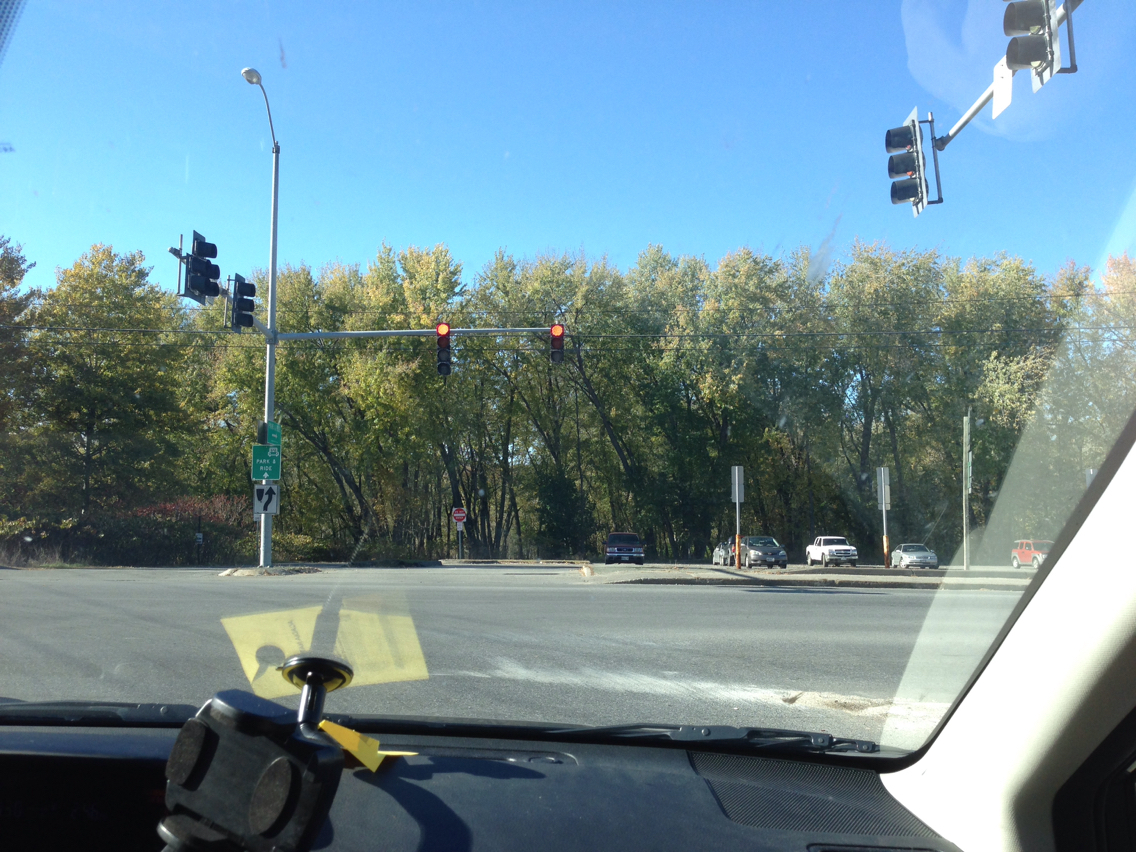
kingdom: Plantae
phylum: Tracheophyta
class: Magnoliopsida
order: Sapindales
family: Sapindaceae
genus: Acer
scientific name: Acer saccharinum
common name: Silver maple
